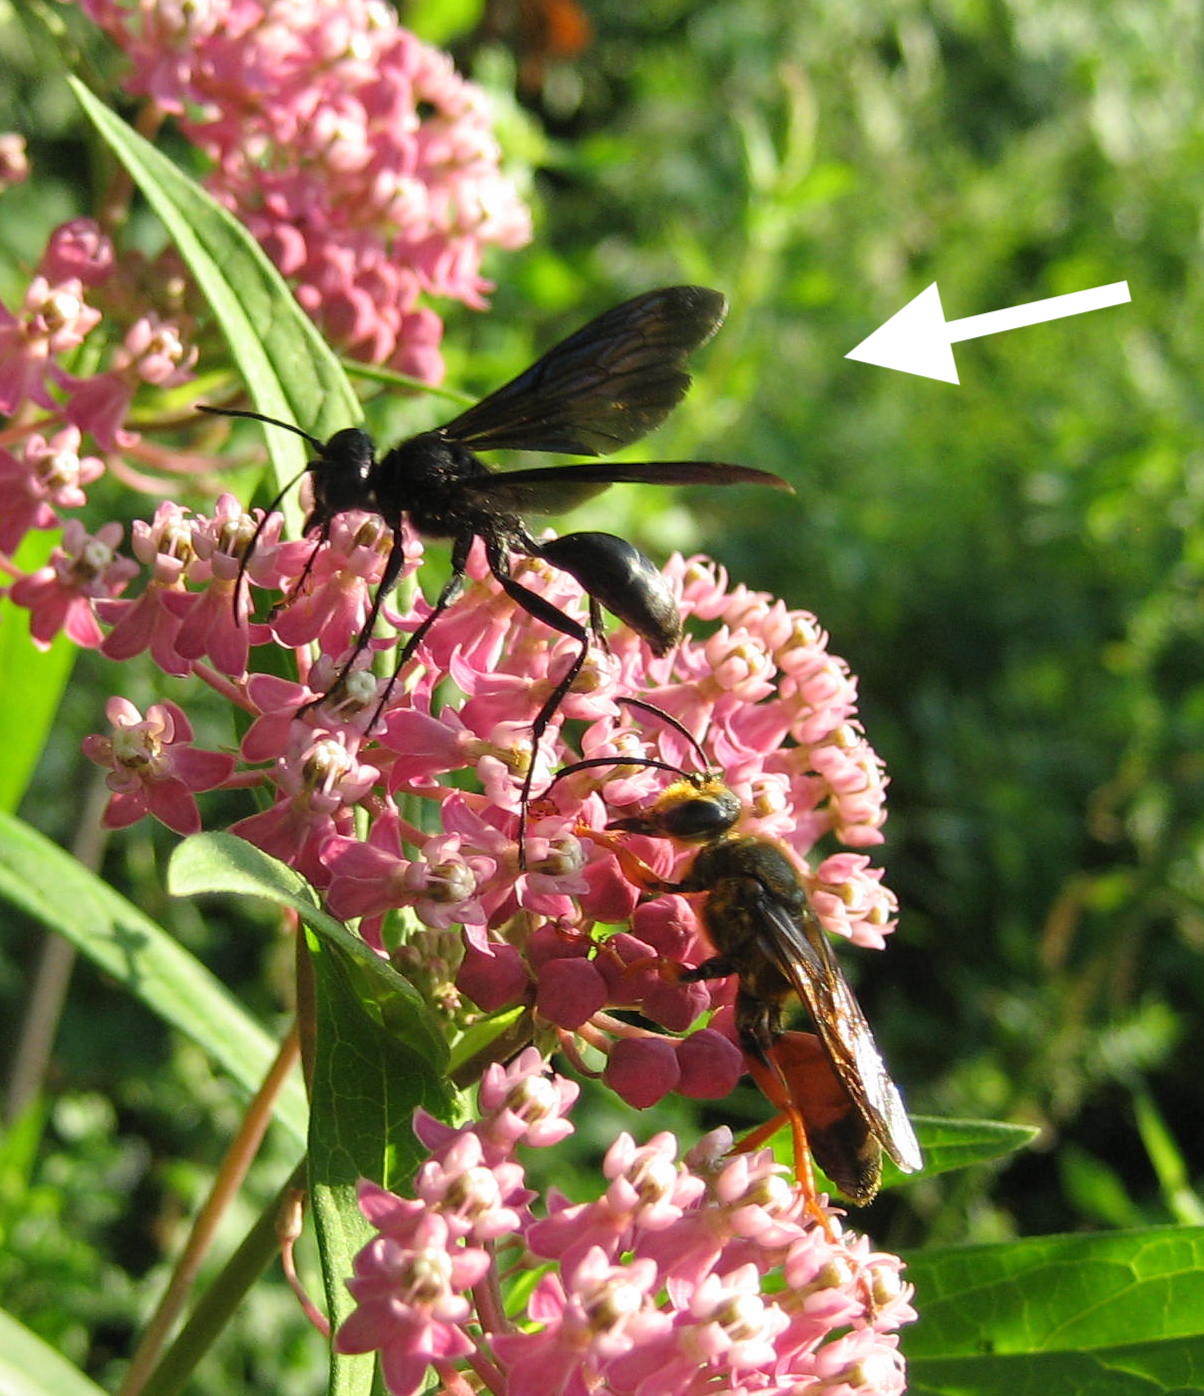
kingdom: Animalia
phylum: Arthropoda
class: Insecta
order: Hymenoptera
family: Sphecidae
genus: Sphex
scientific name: Sphex pensylvanicus
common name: Great black digger wasp
